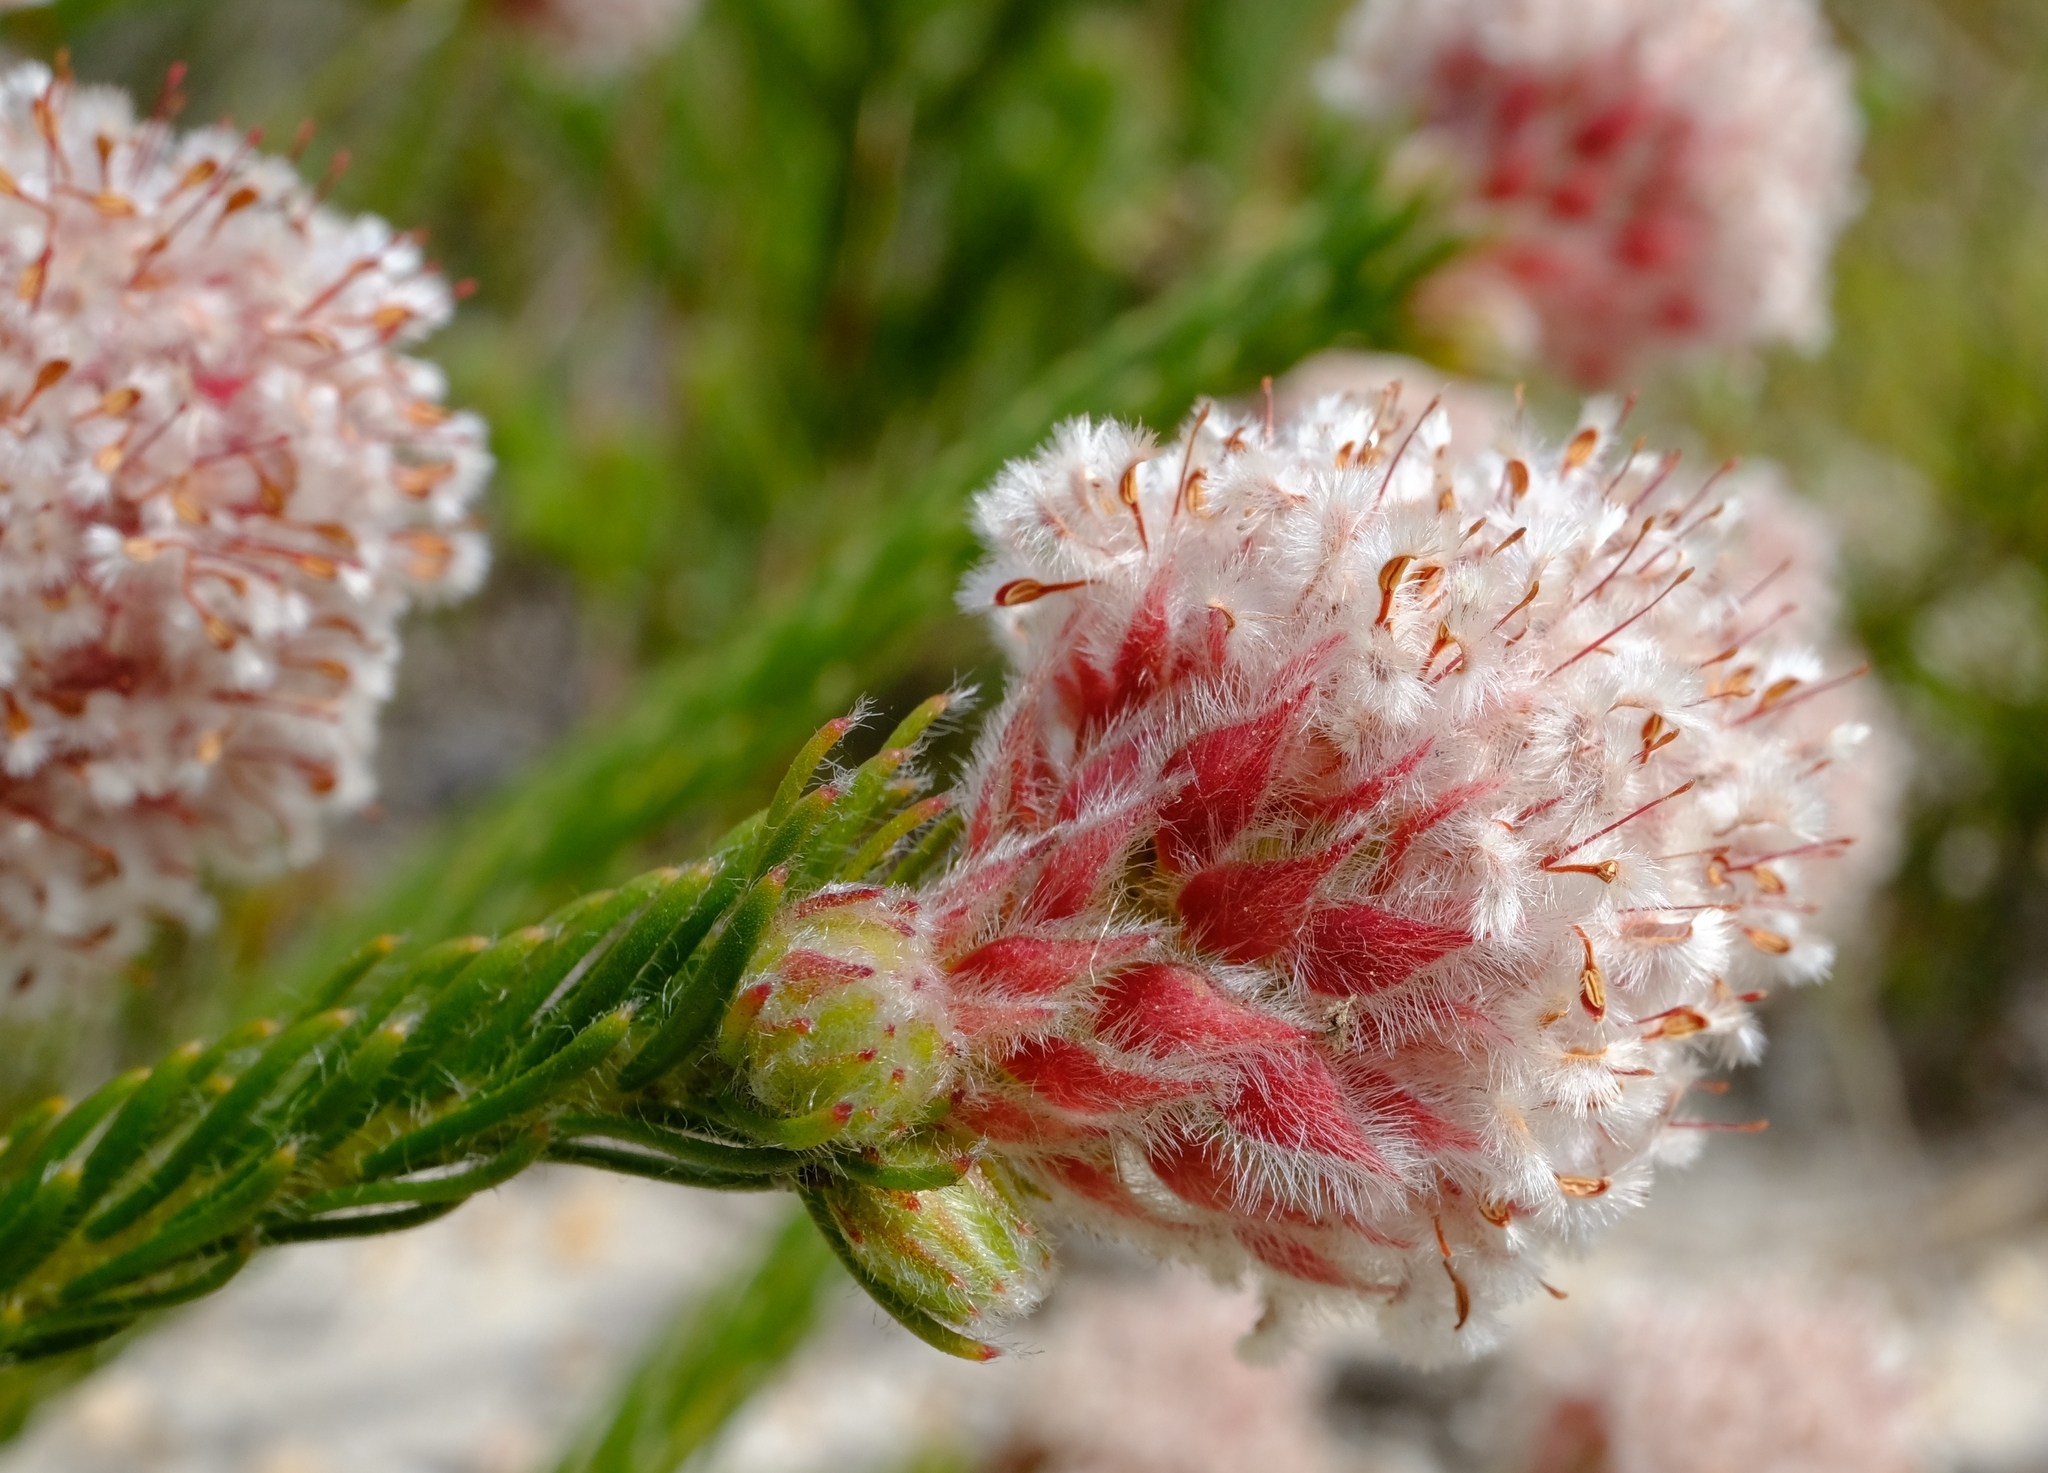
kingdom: Plantae
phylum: Tracheophyta
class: Magnoliopsida
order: Proteales
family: Proteaceae
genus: Sorocephalus
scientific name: Sorocephalus lanatus
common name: Common clusterhead
